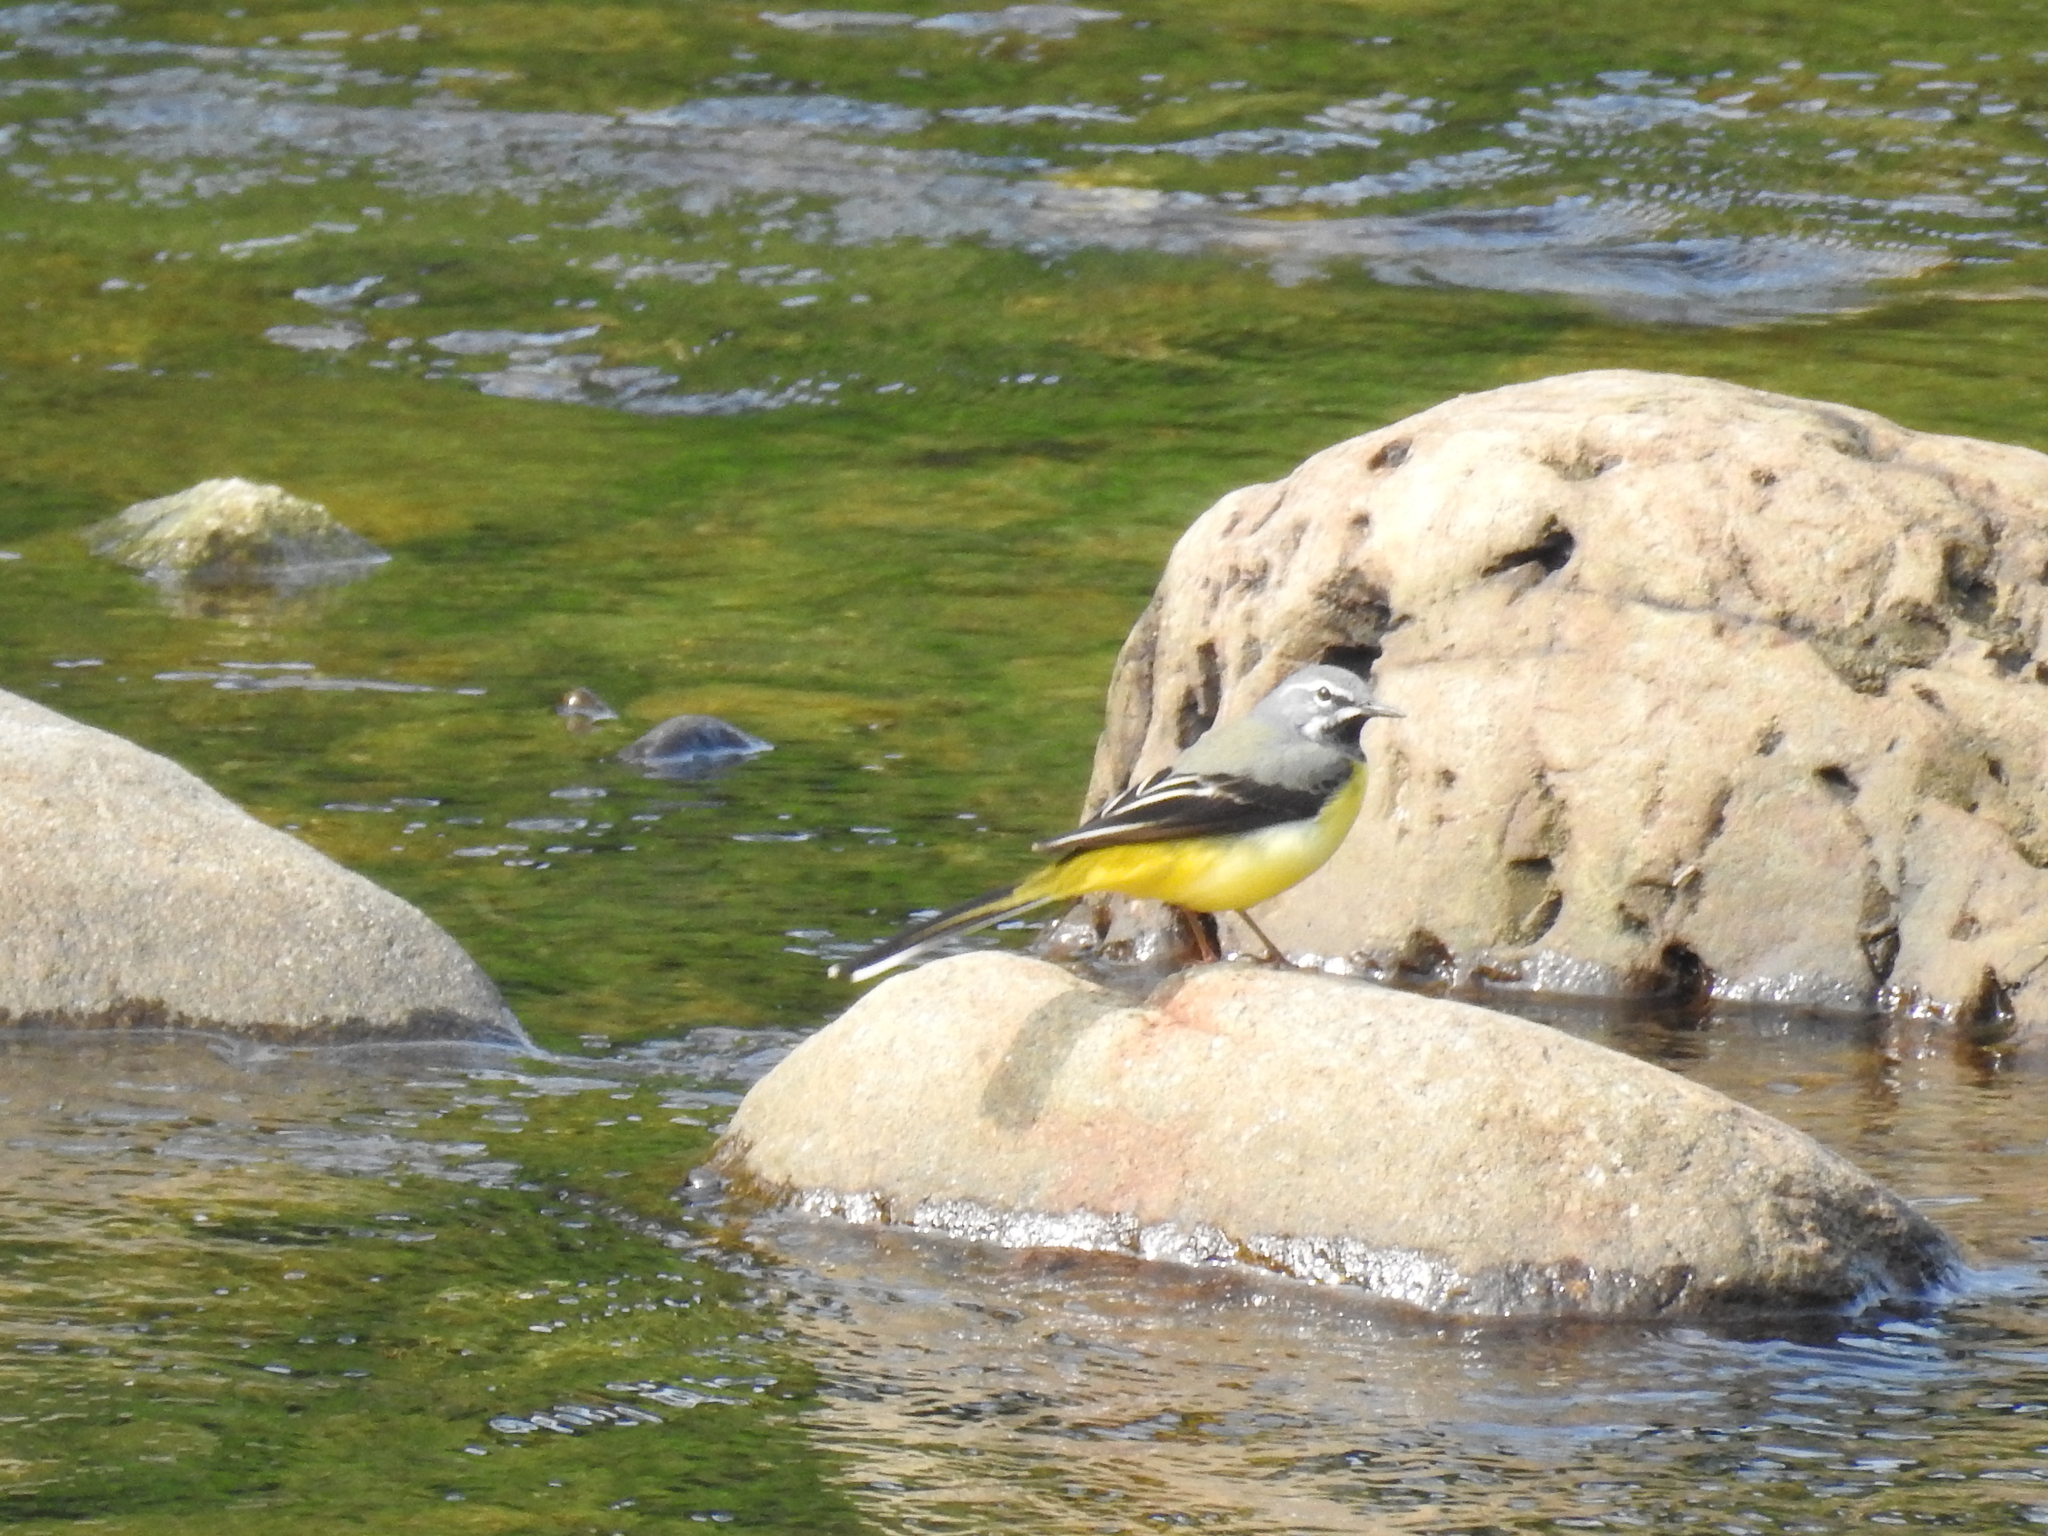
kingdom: Animalia
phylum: Chordata
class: Aves
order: Passeriformes
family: Motacillidae
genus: Motacilla
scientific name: Motacilla cinerea
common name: Grey wagtail
